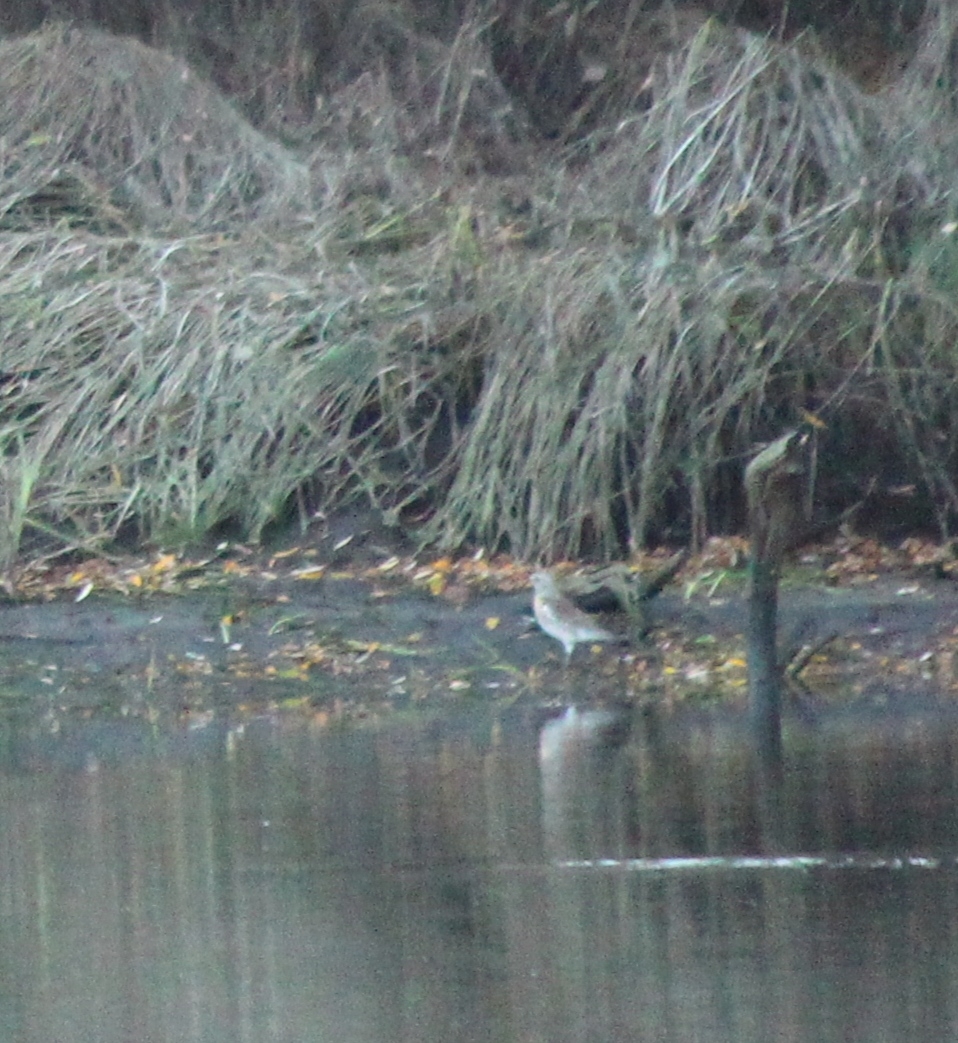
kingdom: Animalia
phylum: Chordata
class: Aves
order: Passeriformes
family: Turdidae
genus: Turdus
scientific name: Turdus pilaris
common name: Fieldfare
